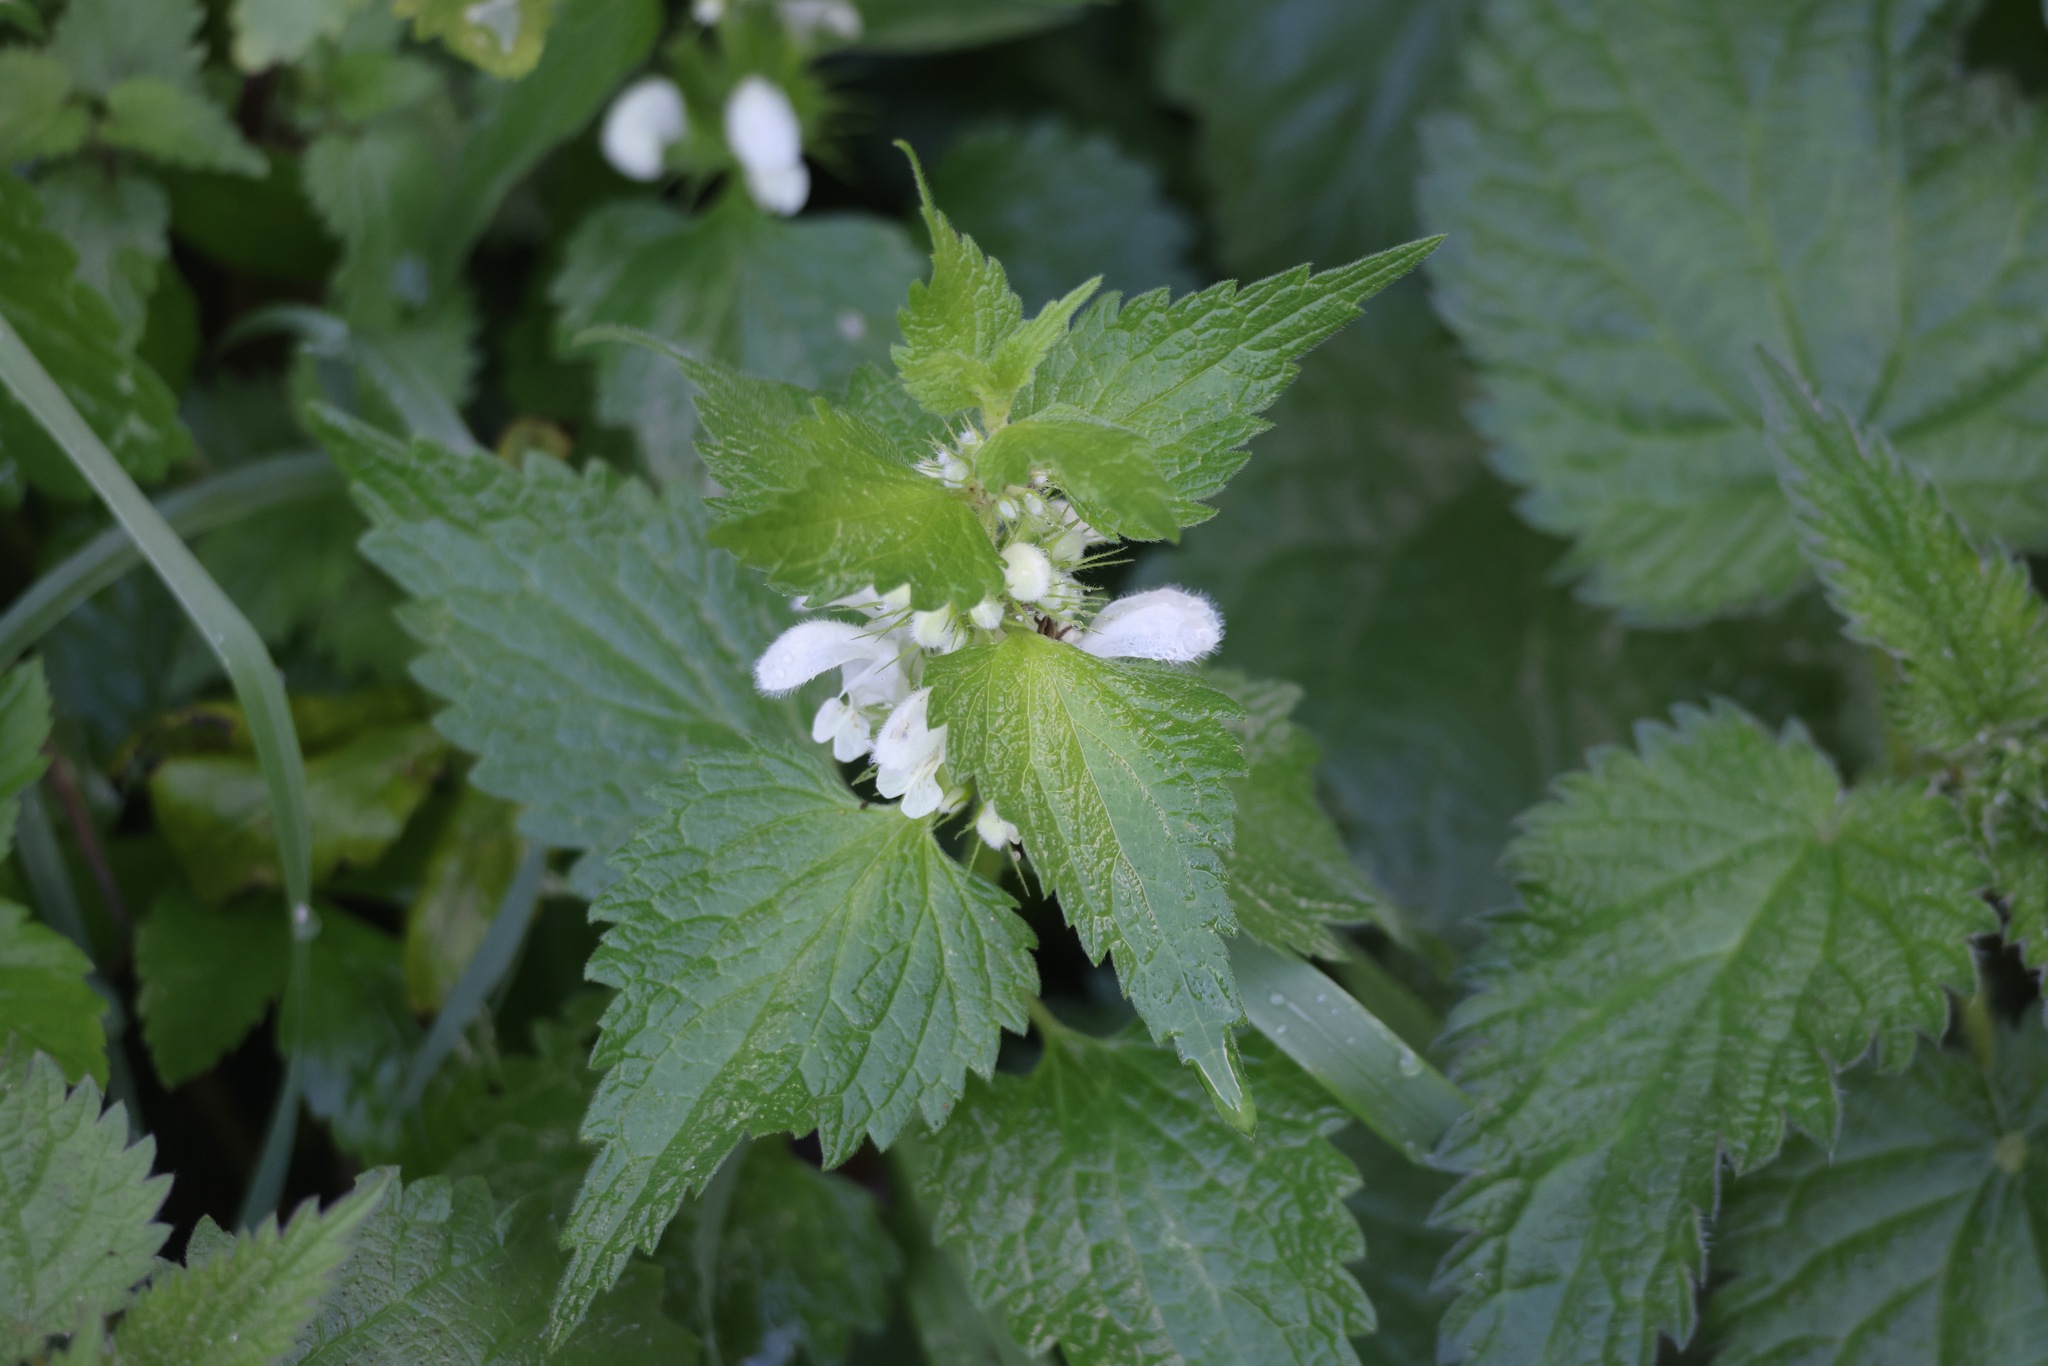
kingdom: Plantae
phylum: Tracheophyta
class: Magnoliopsida
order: Lamiales
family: Lamiaceae
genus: Lamium
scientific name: Lamium album
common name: White dead-nettle
